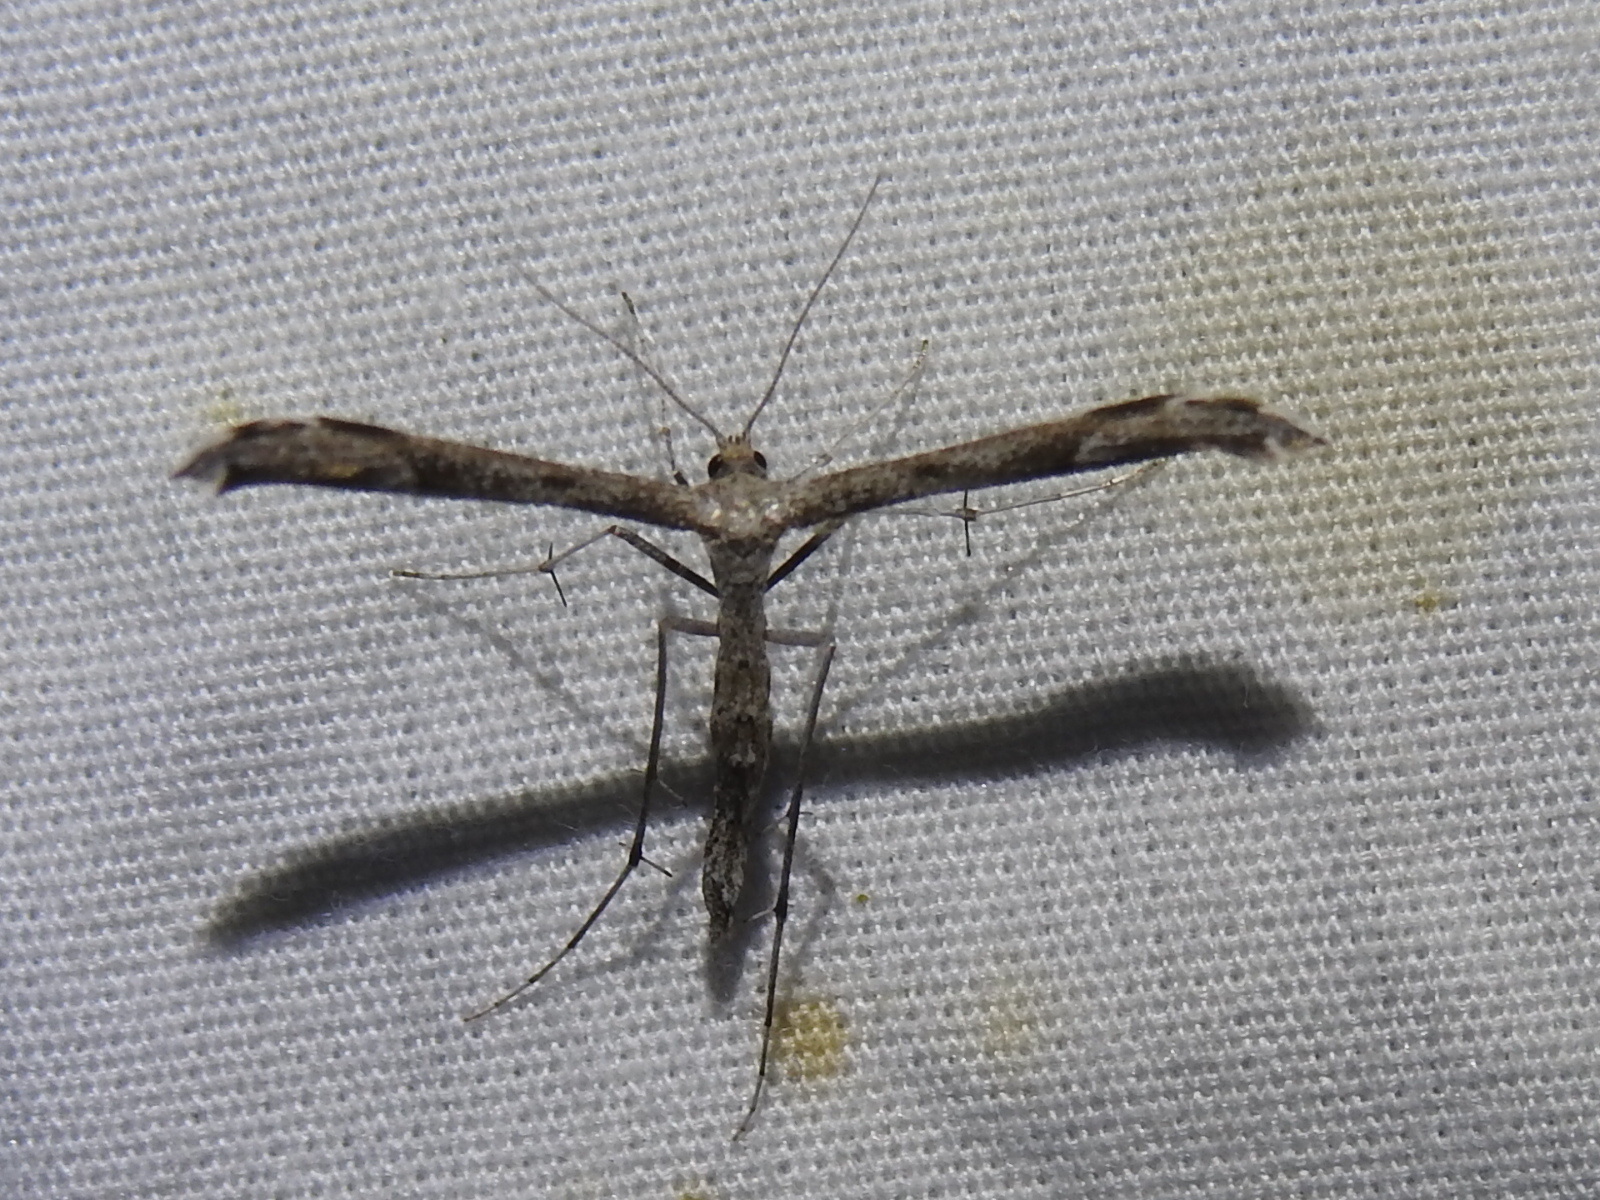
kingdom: Animalia
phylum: Arthropoda
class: Insecta
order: Lepidoptera
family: Pterophoridae
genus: Hellinsia
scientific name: Hellinsia inquinatus
